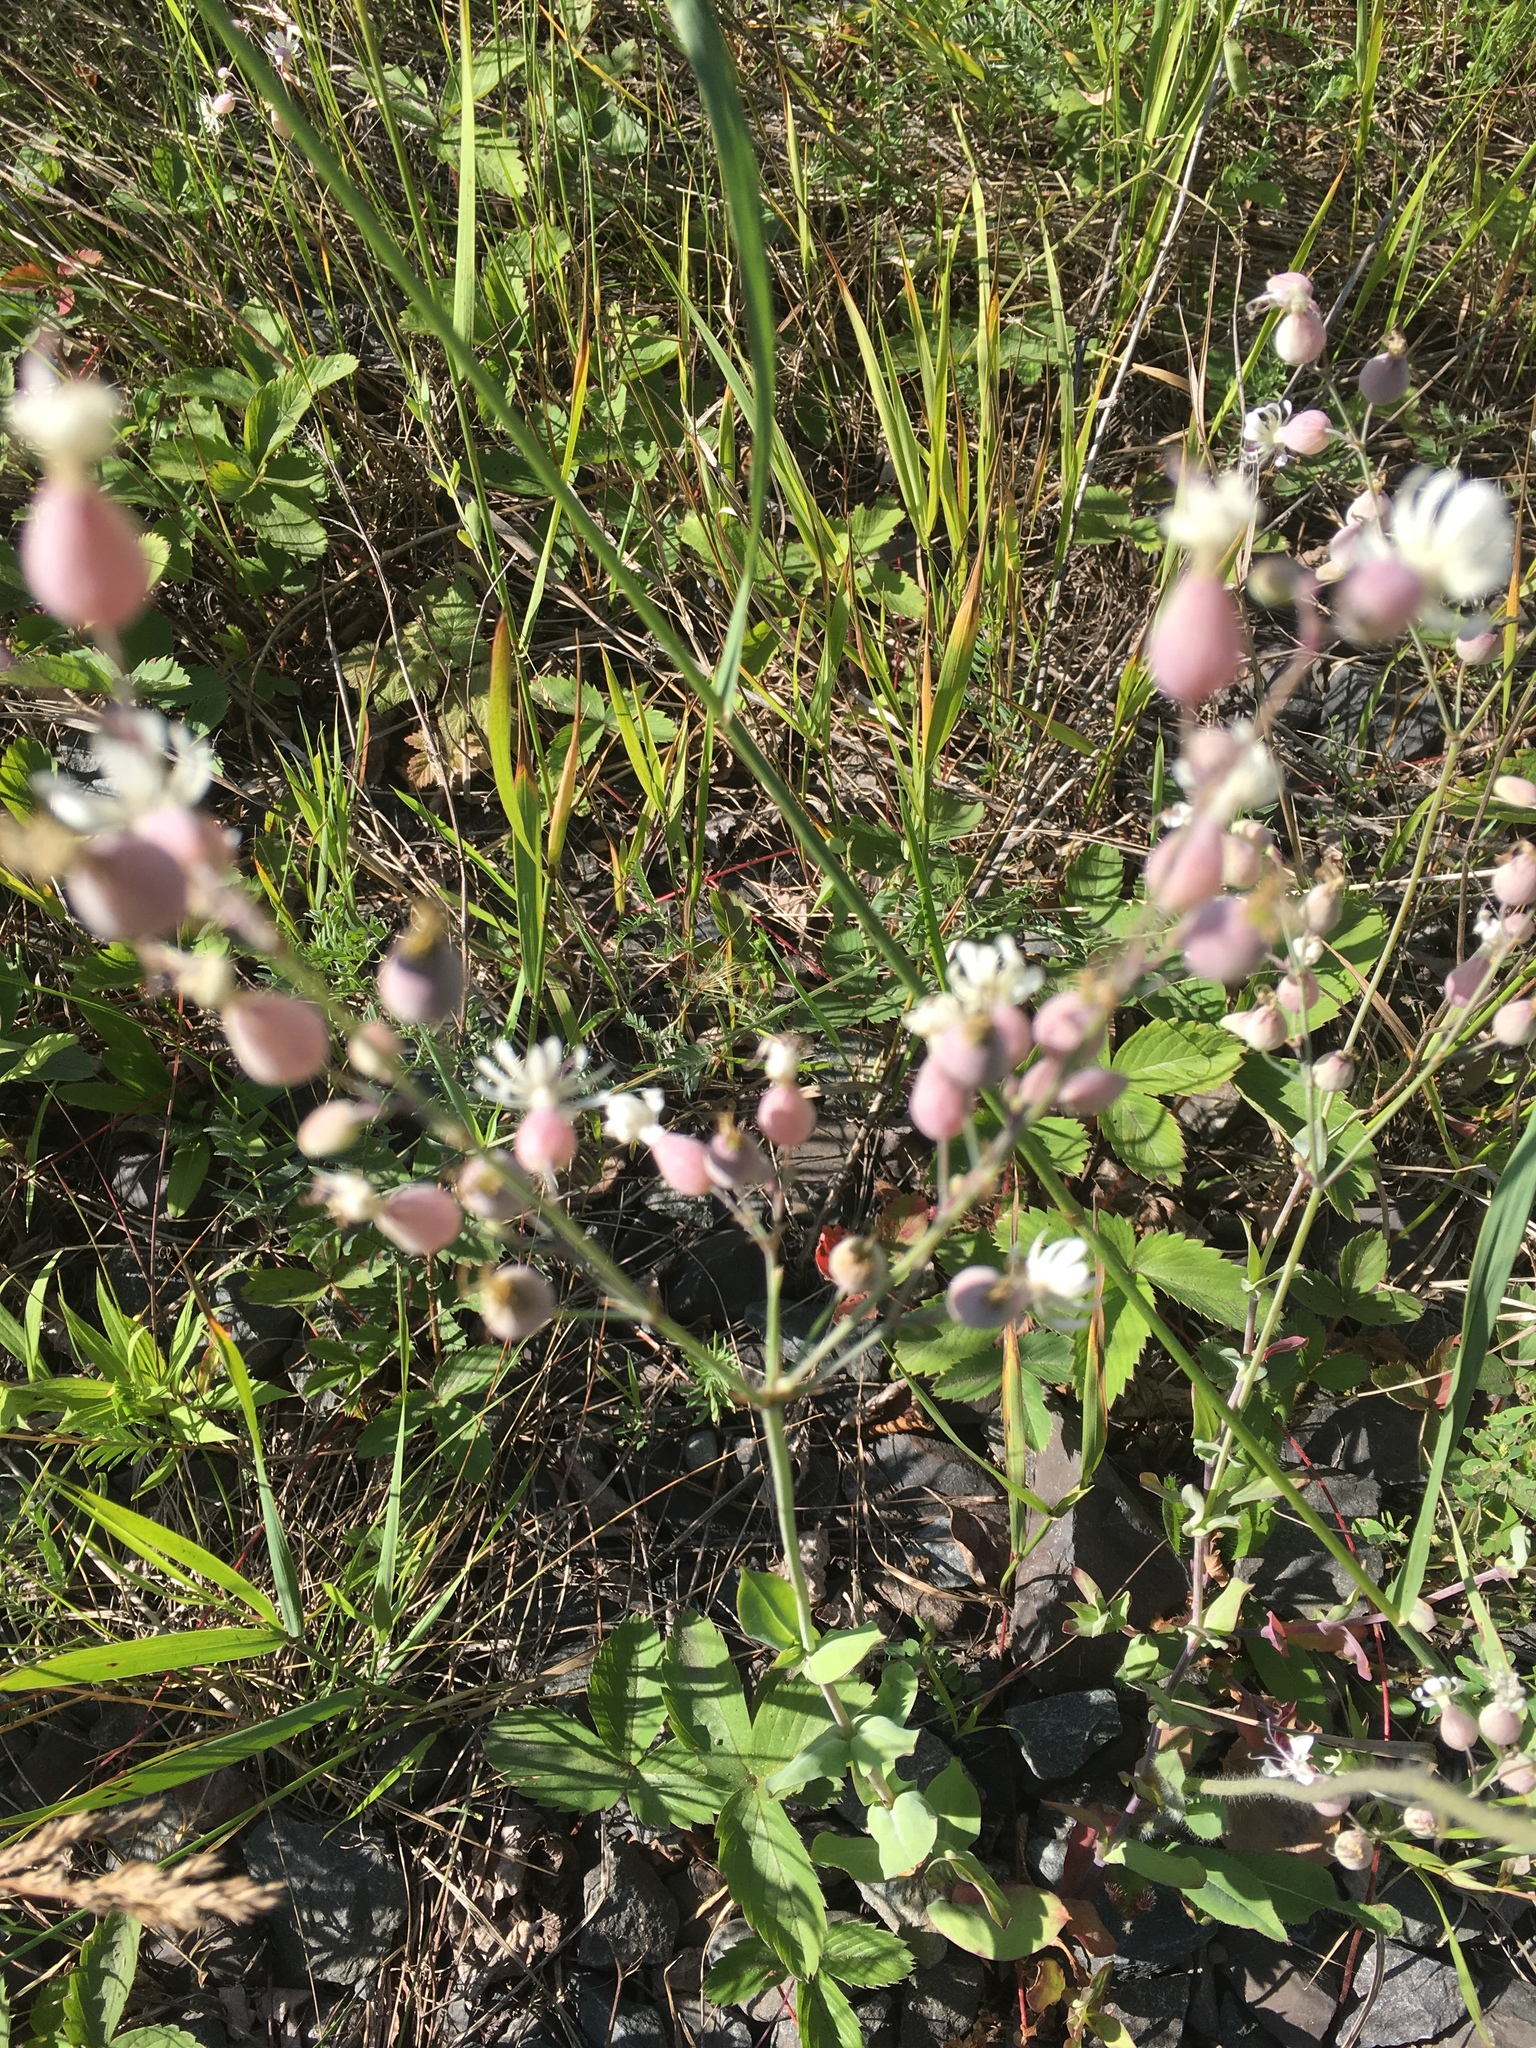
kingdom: Plantae
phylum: Tracheophyta
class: Magnoliopsida
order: Caryophyllales
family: Caryophyllaceae
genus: Silene
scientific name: Silene vulgaris
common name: Bladder campion
